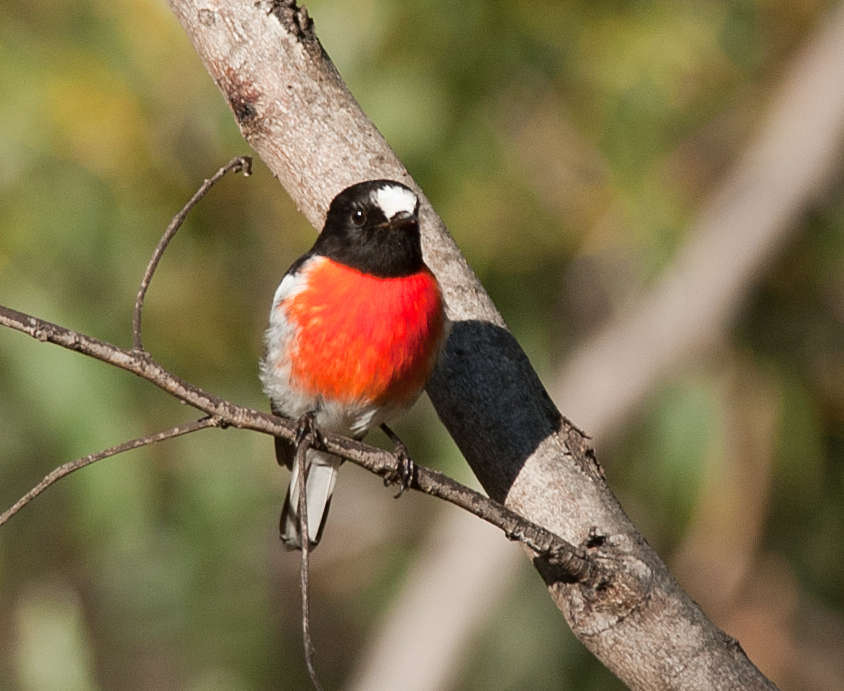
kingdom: Animalia
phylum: Chordata
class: Aves
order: Passeriformes
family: Petroicidae
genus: Petroica
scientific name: Petroica boodang
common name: Scarlet robin
